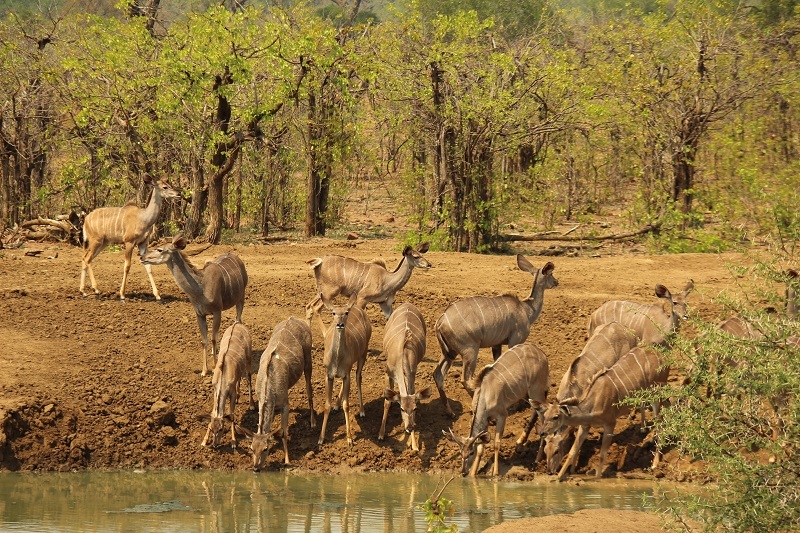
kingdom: Animalia
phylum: Chordata
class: Mammalia
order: Artiodactyla
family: Bovidae
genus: Tragelaphus
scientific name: Tragelaphus strepsiceros
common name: Greater kudu
